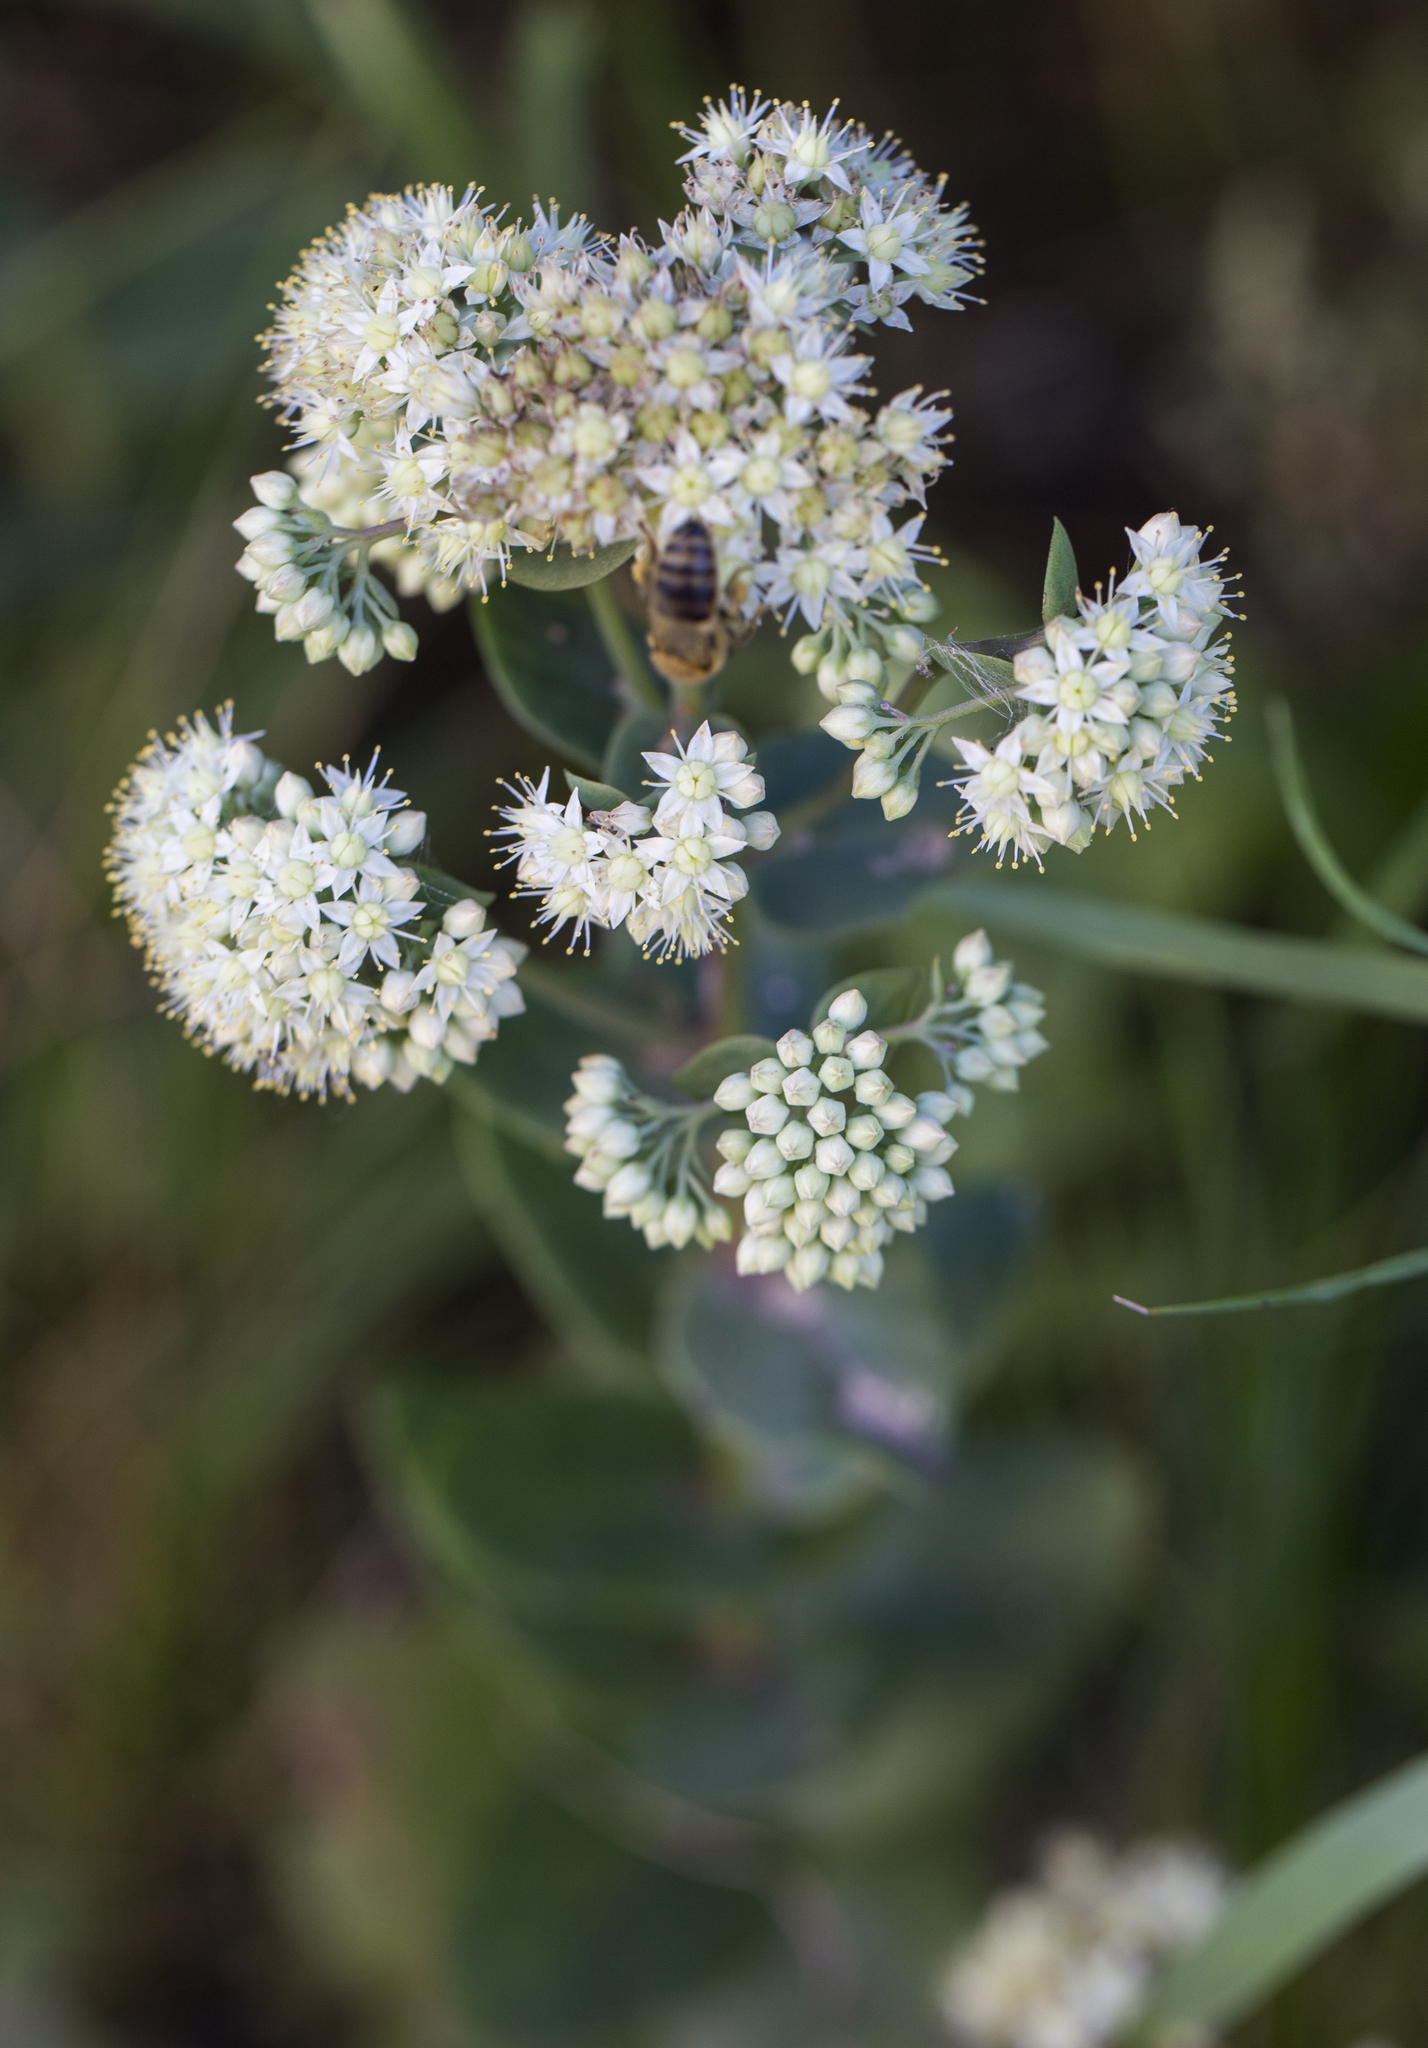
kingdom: Plantae
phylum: Tracheophyta
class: Magnoliopsida
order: Saxifragales
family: Crassulaceae
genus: Hylotelephium
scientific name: Hylotelephium maximum
